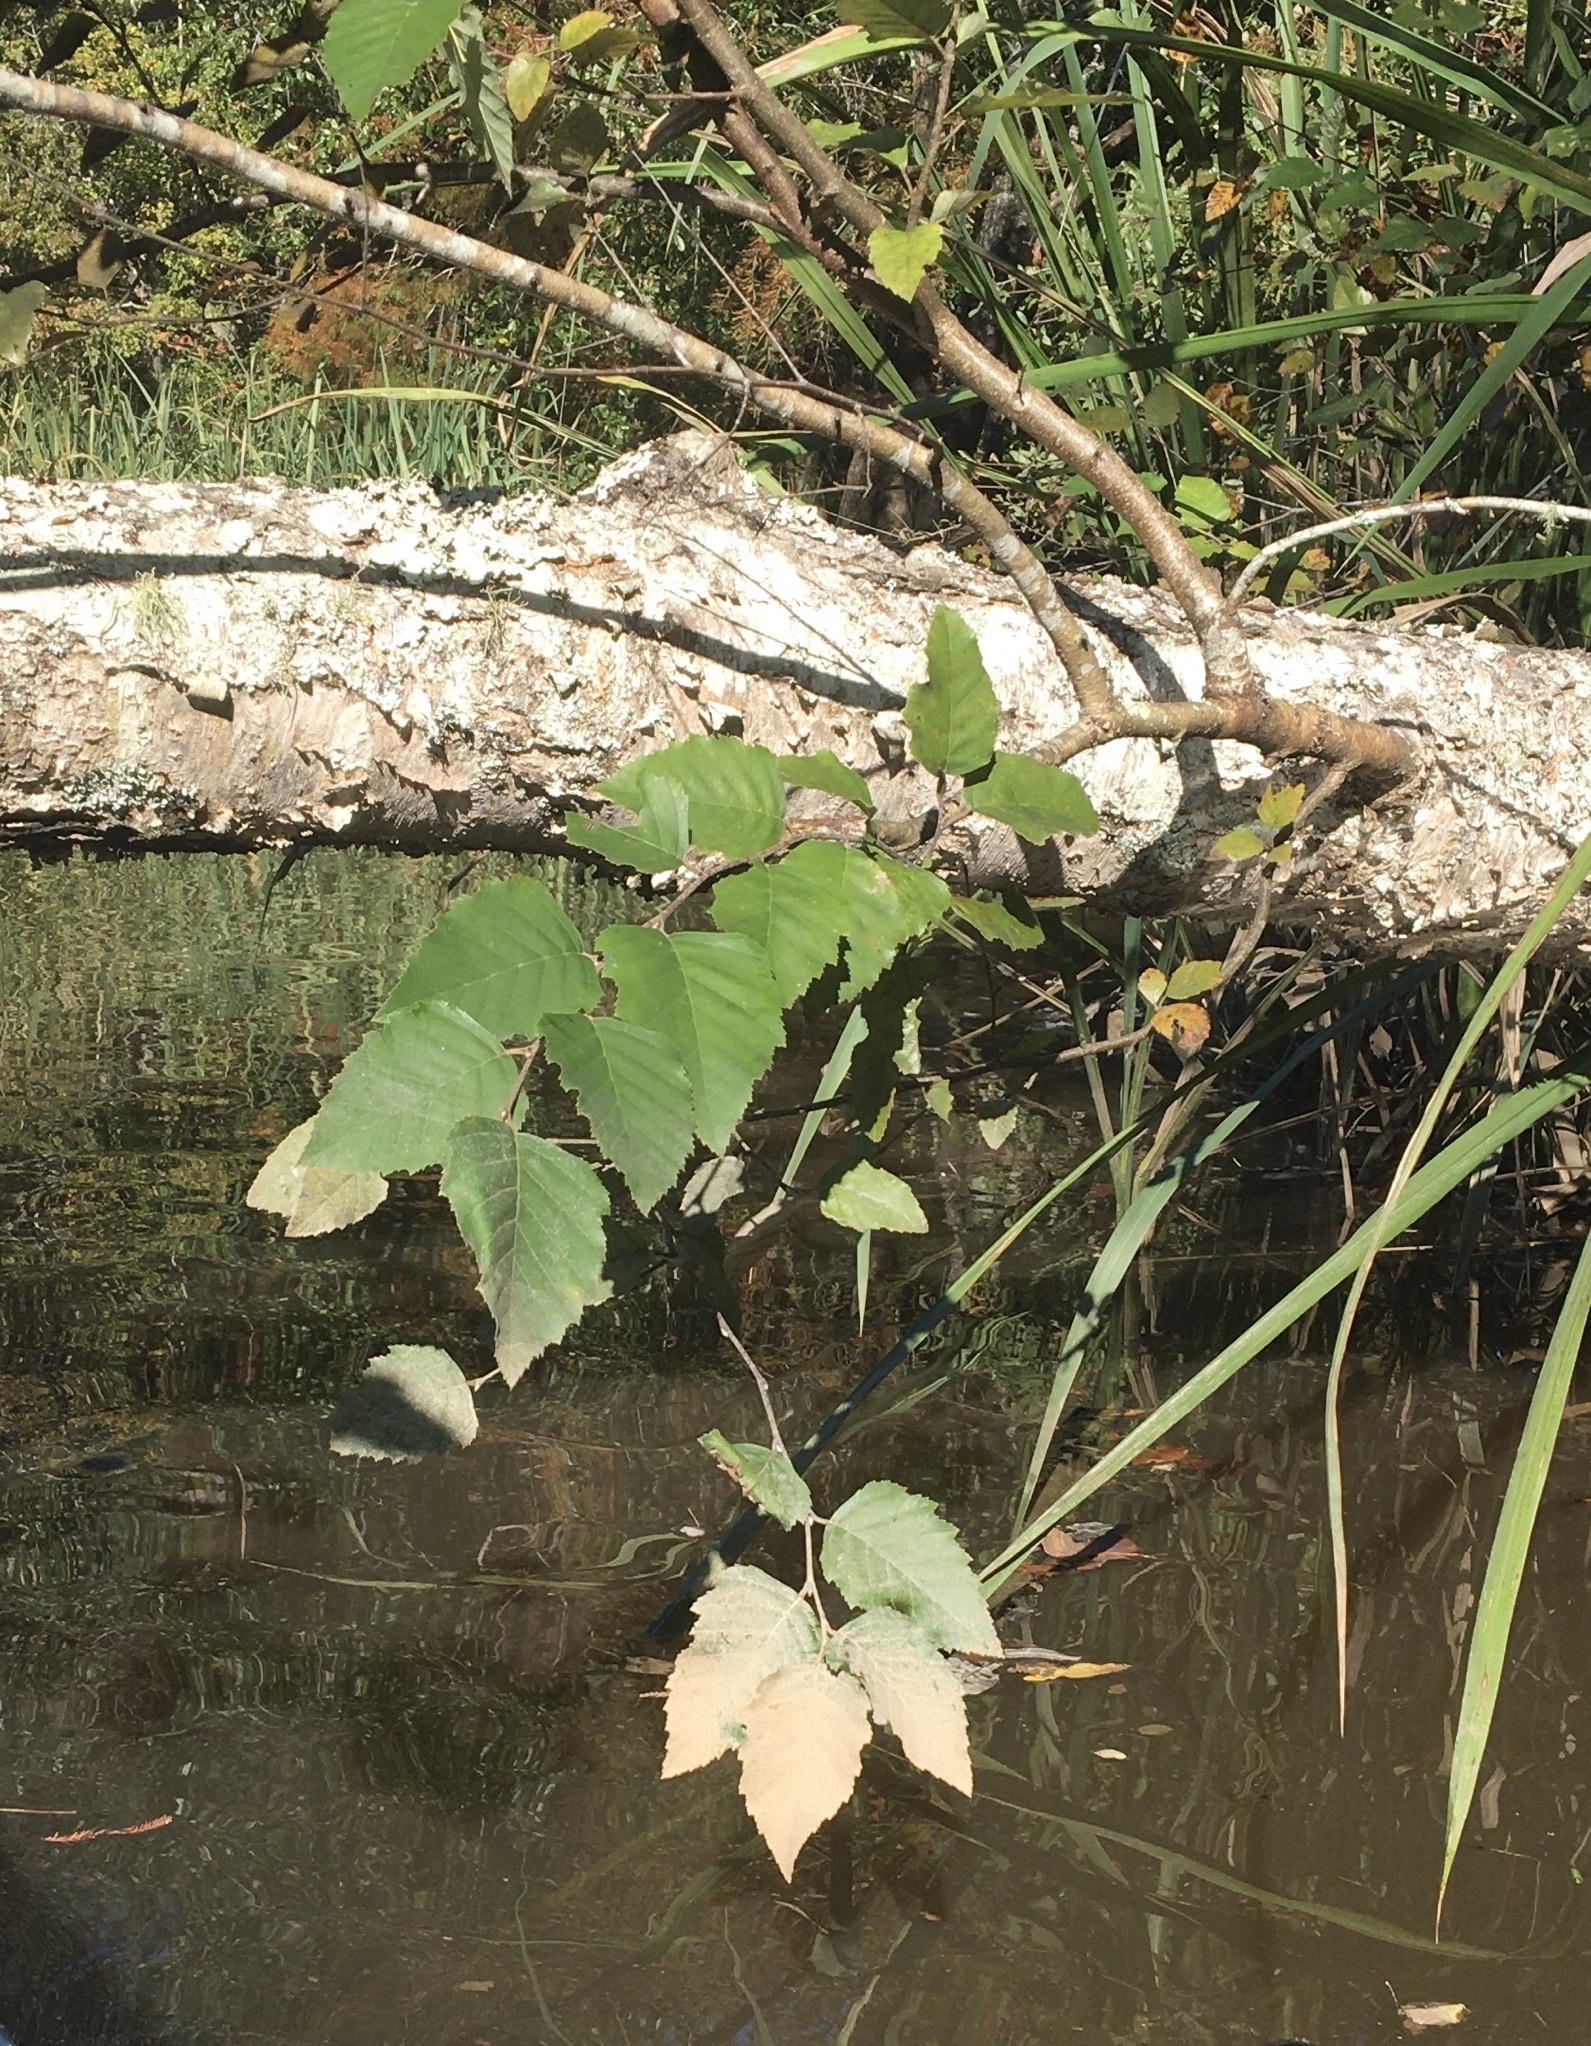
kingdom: Plantae
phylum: Tracheophyta
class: Magnoliopsida
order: Fagales
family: Betulaceae
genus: Betula
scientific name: Betula nigra
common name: Black birch
